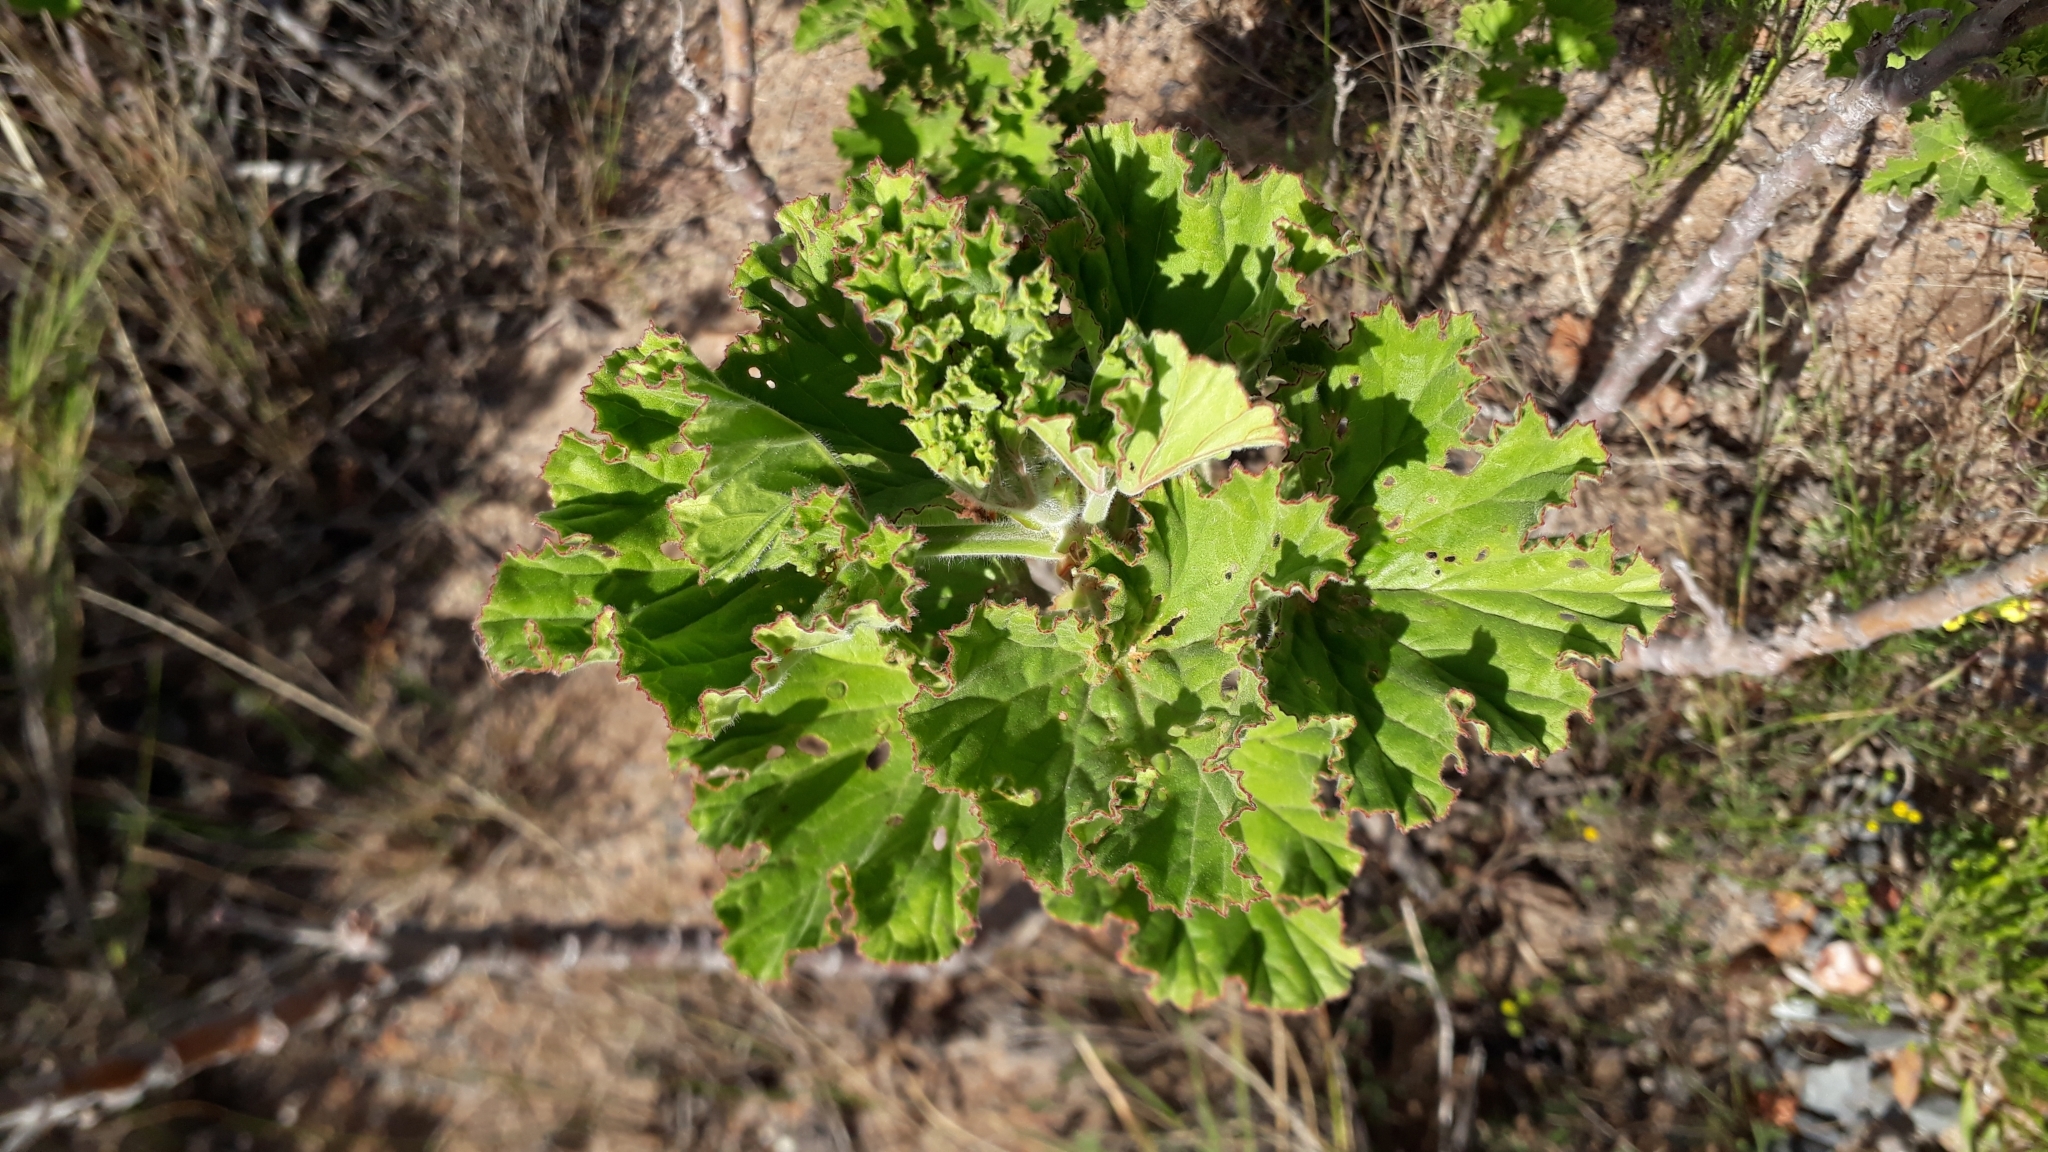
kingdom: Plantae
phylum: Tracheophyta
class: Magnoliopsida
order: Geraniales
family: Geraniaceae
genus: Pelargonium
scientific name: Pelargonium cucullatum
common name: Tree pelargonium
